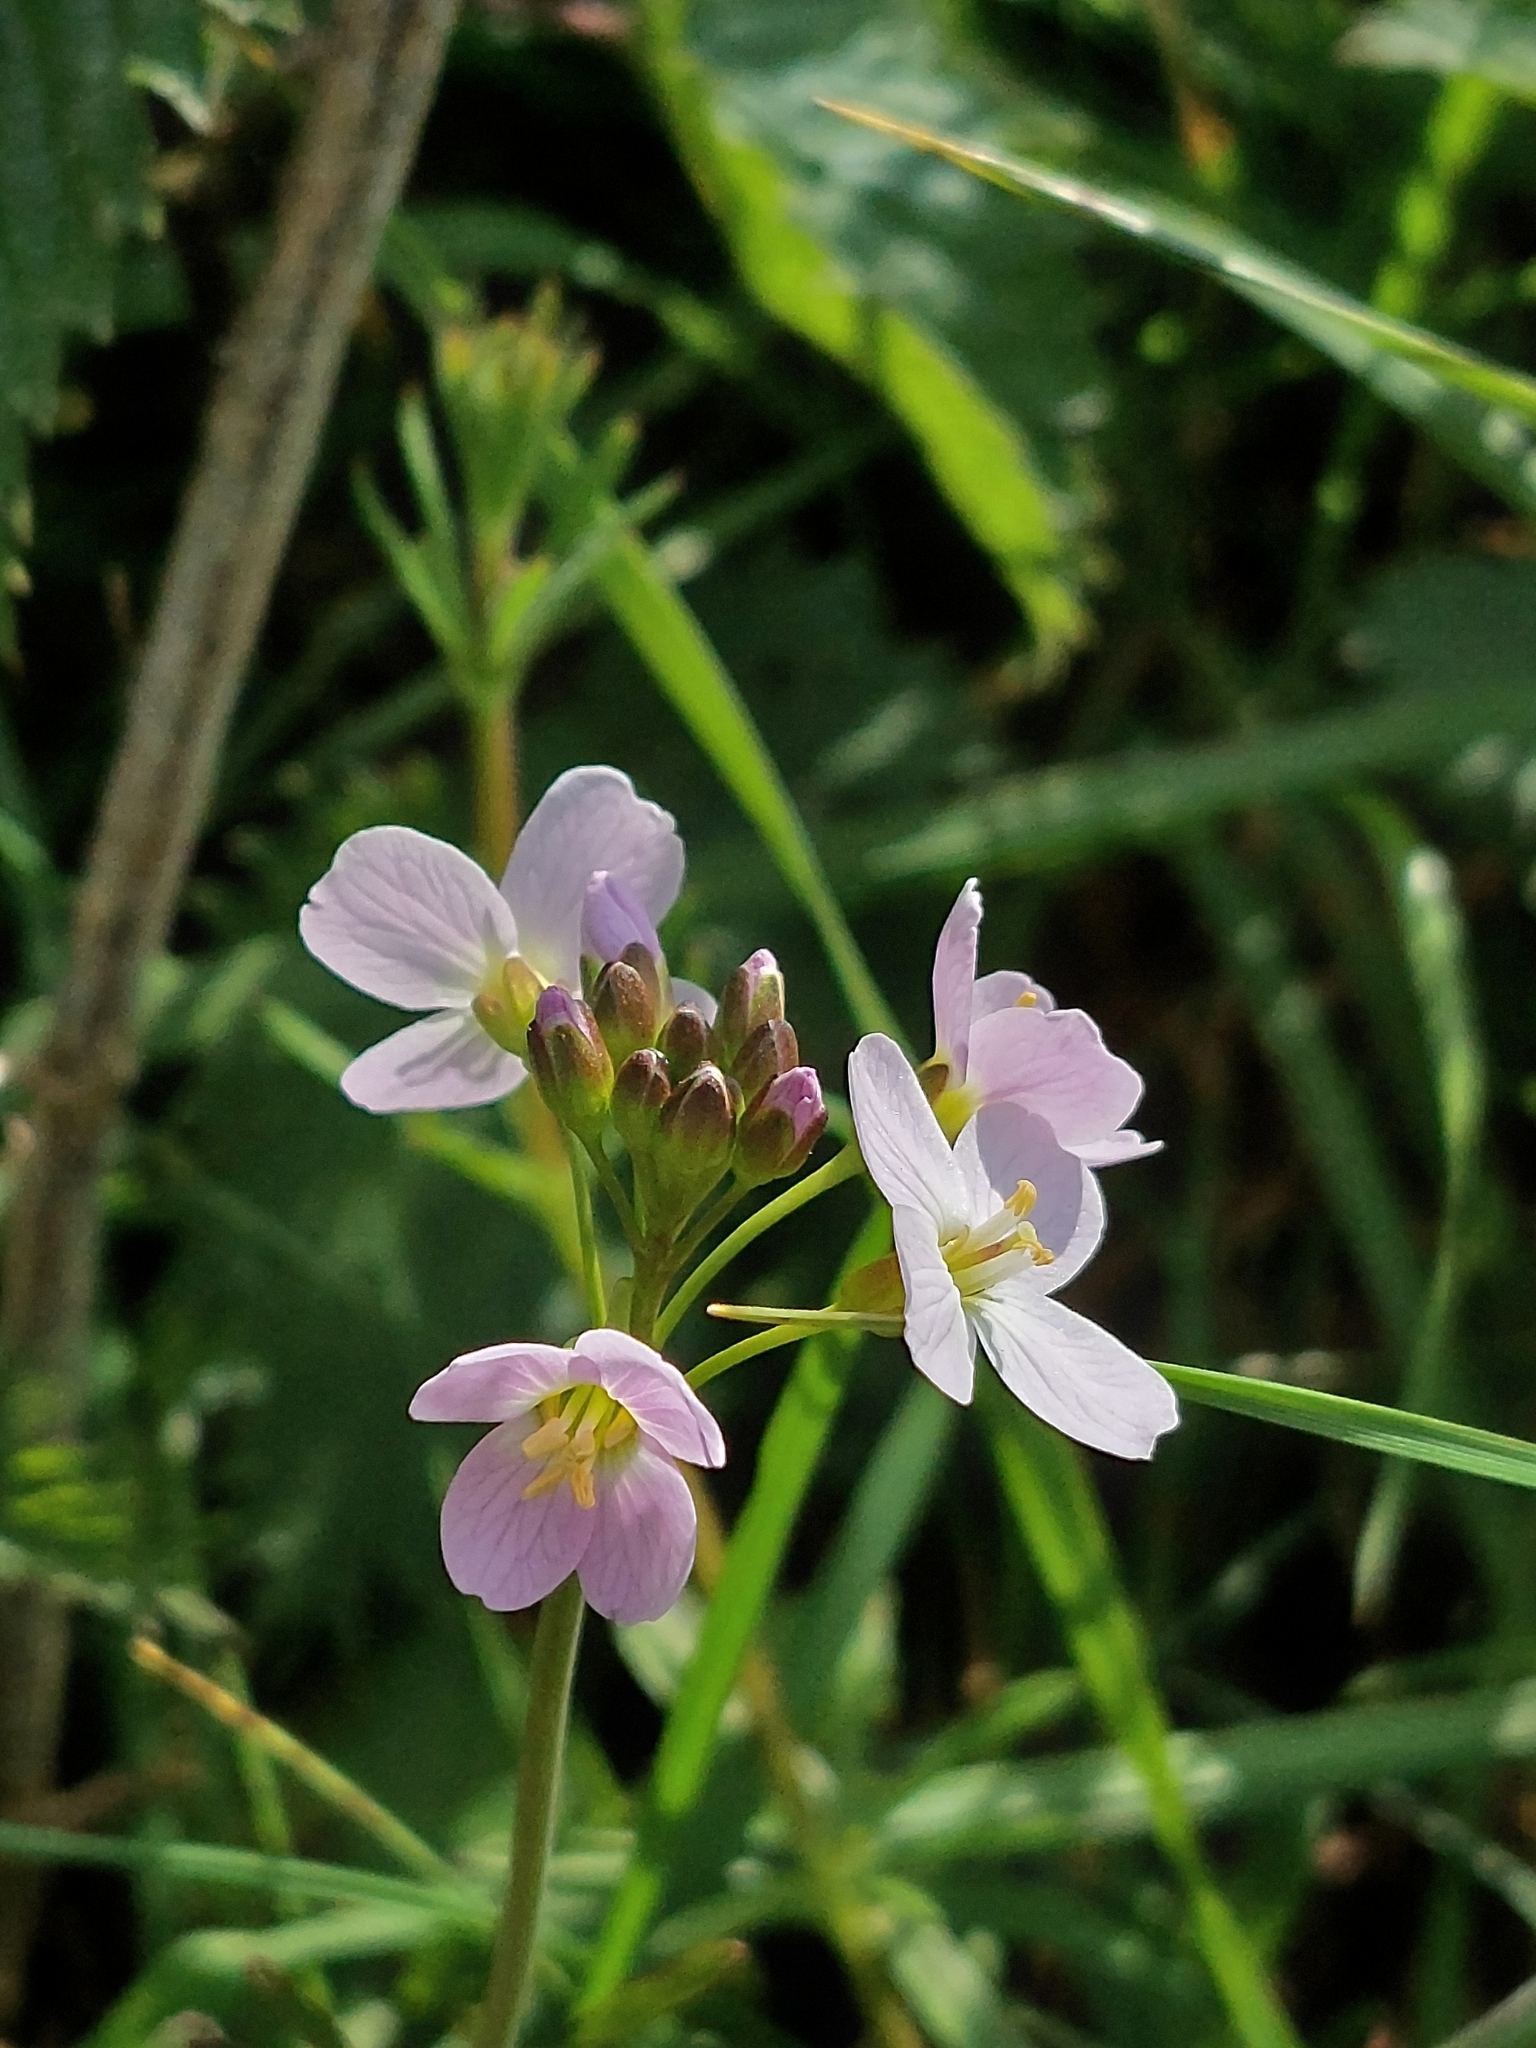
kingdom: Plantae
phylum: Tracheophyta
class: Magnoliopsida
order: Brassicales
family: Brassicaceae
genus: Cardamine
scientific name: Cardamine pratensis
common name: Cuckoo flower
